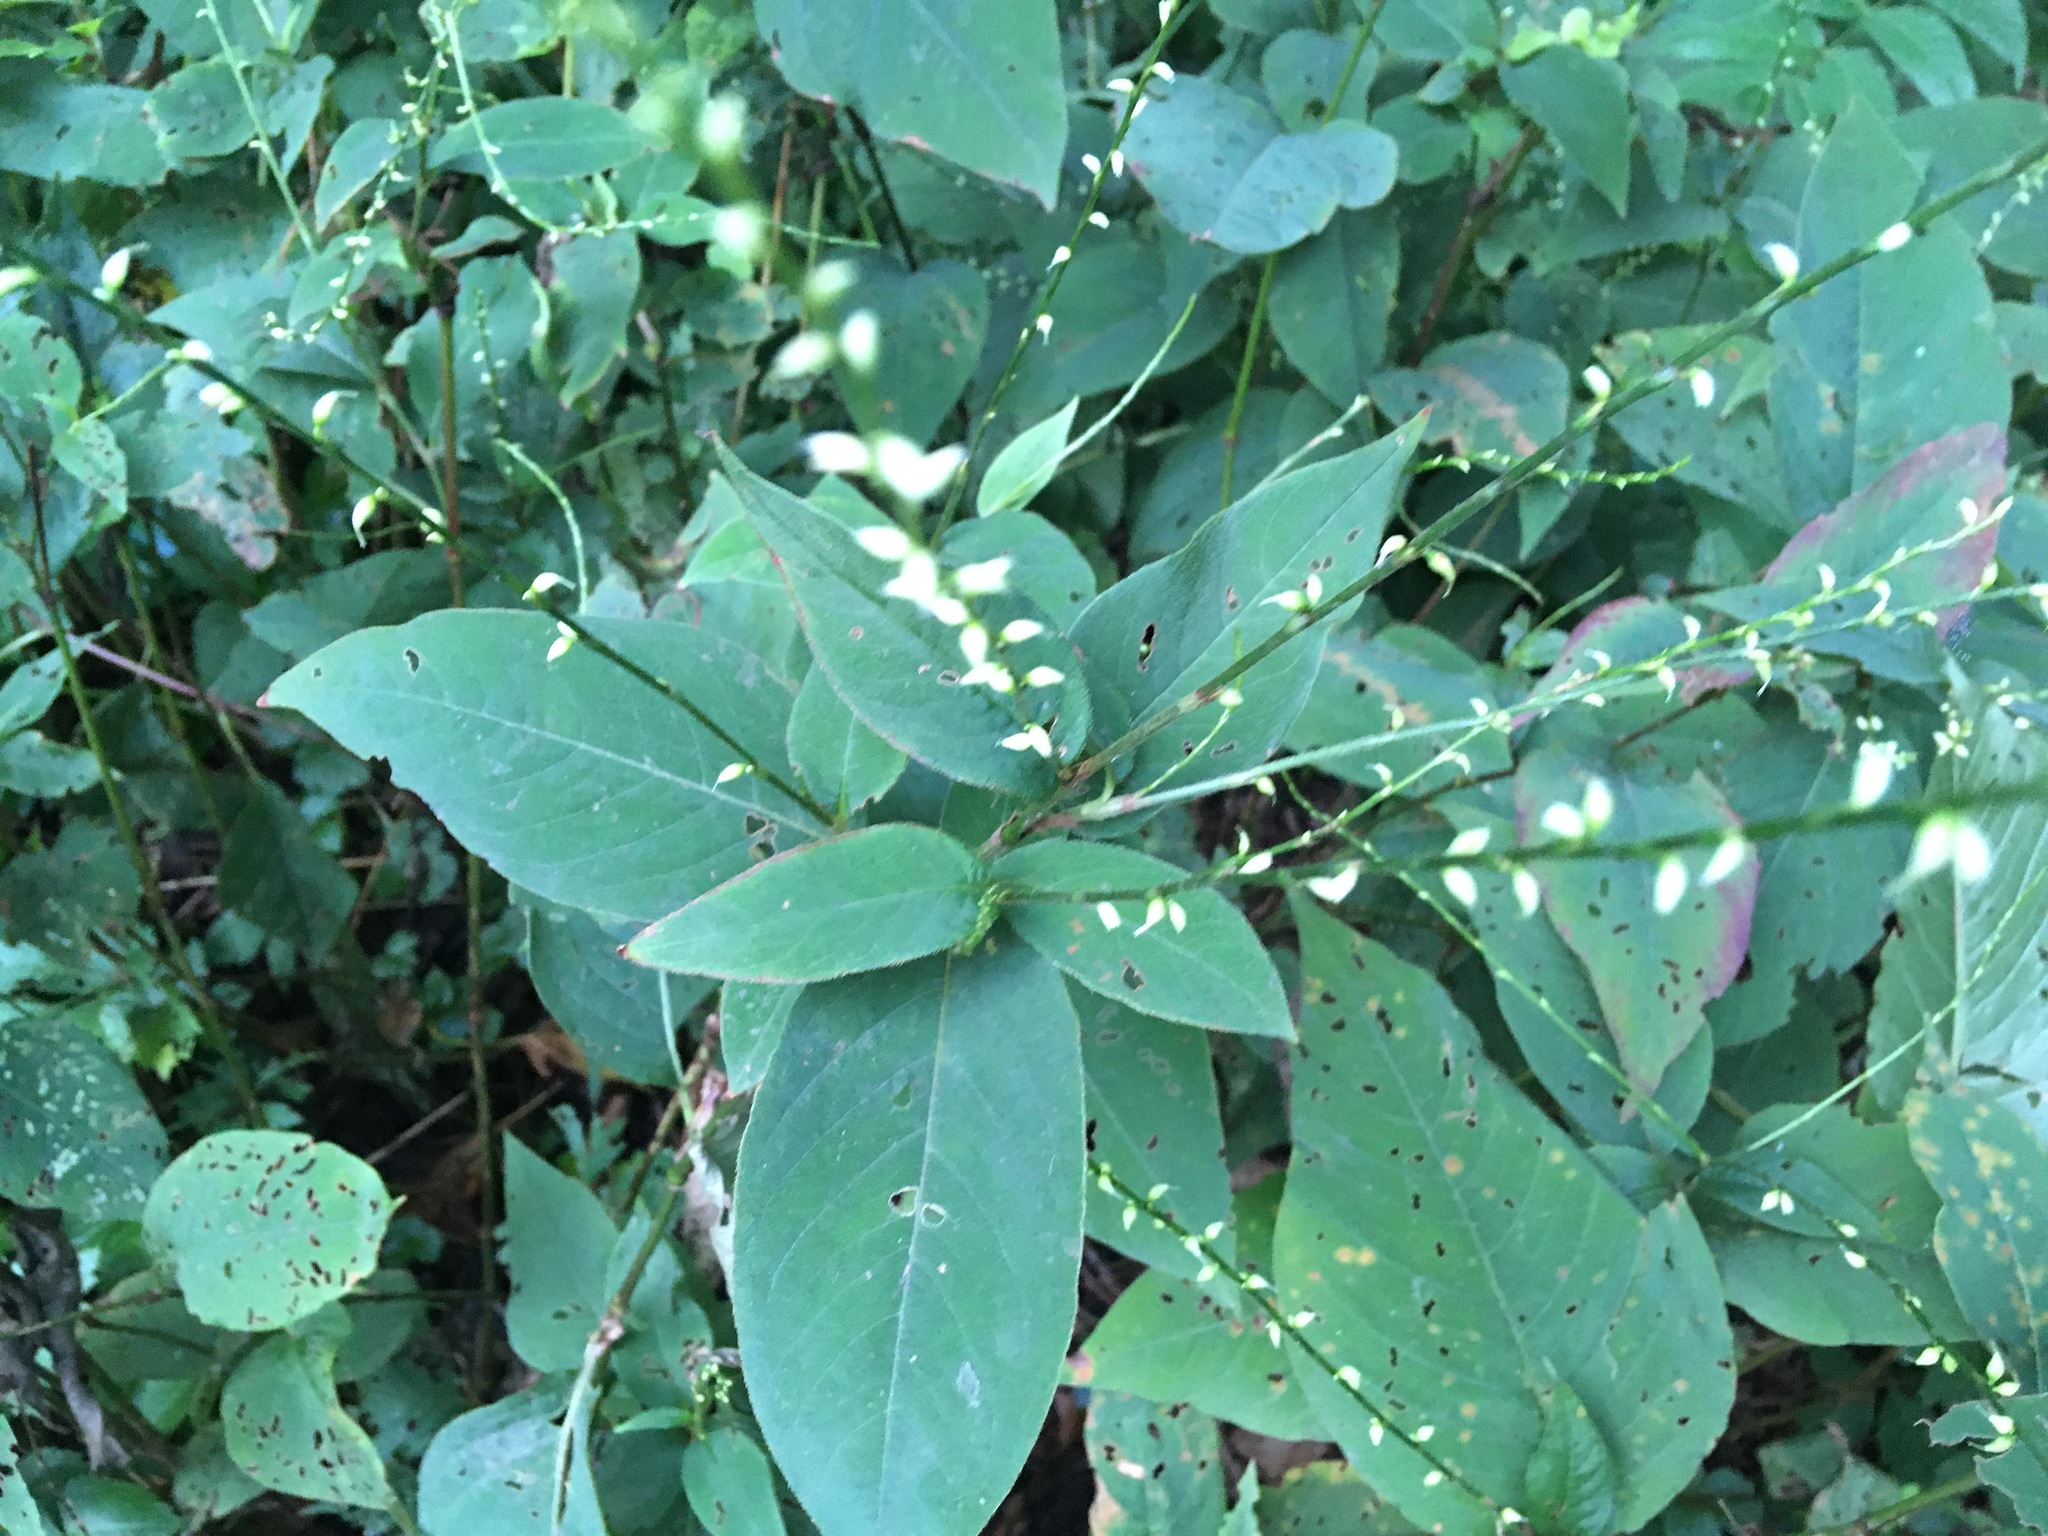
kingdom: Plantae
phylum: Tracheophyta
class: Magnoliopsida
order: Caryophyllales
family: Polygonaceae
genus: Persicaria
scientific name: Persicaria virginiana
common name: Jumpseed
